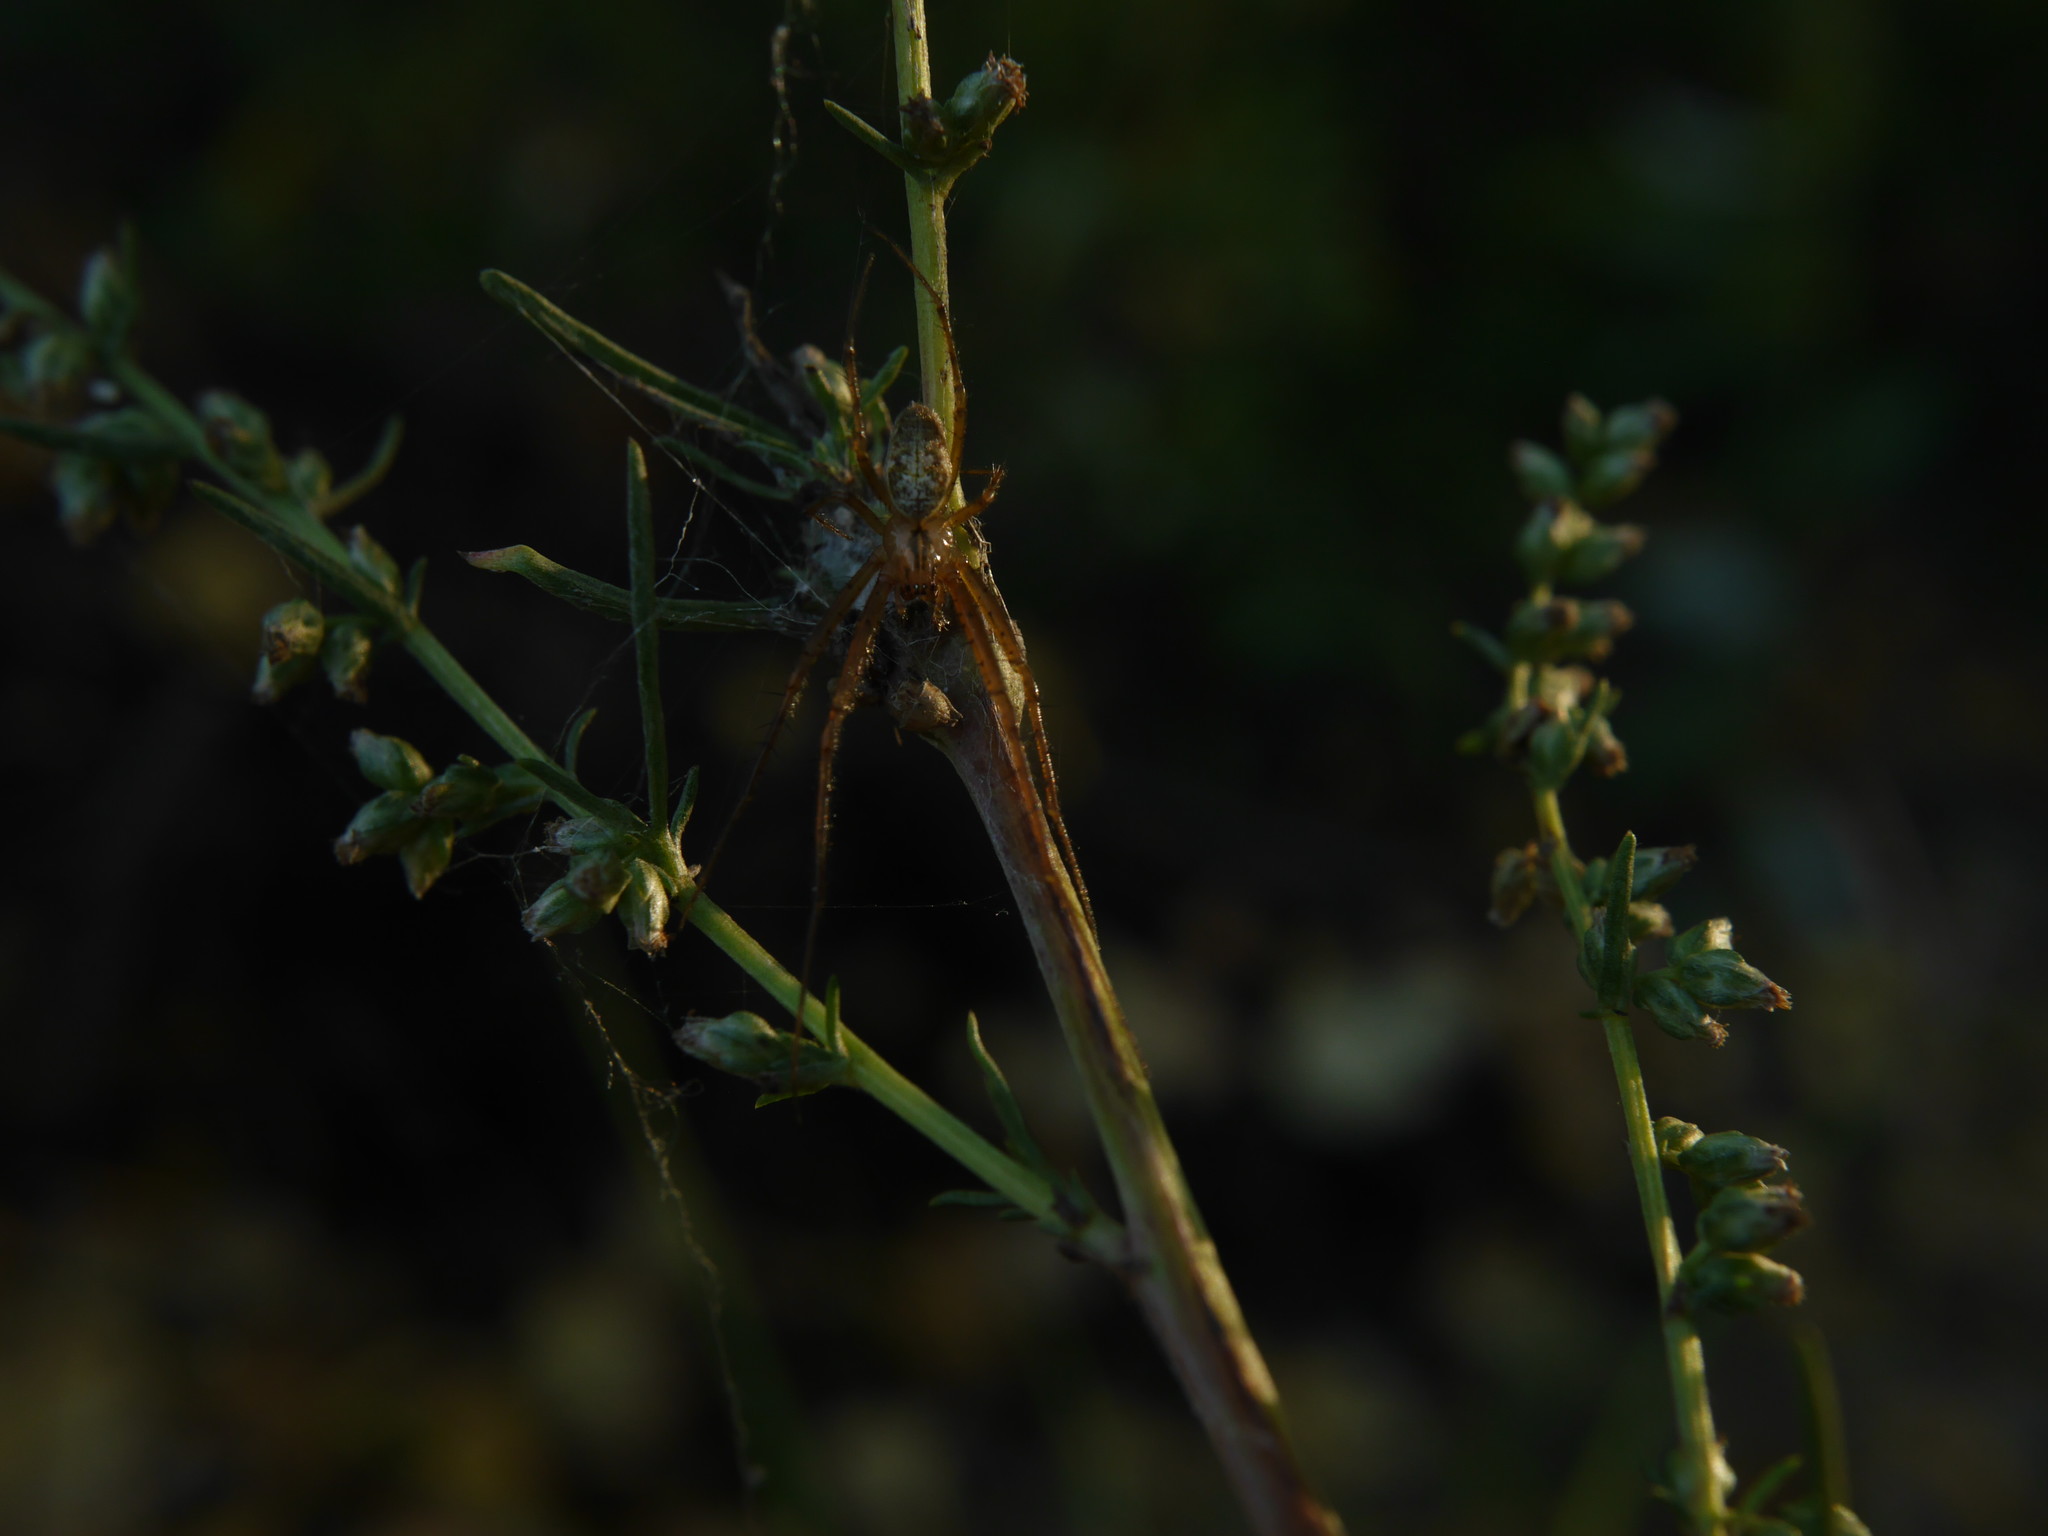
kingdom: Animalia
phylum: Arthropoda
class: Arachnida
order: Araneae
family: Tetragnathidae
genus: Metellina
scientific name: Metellina segmentata
